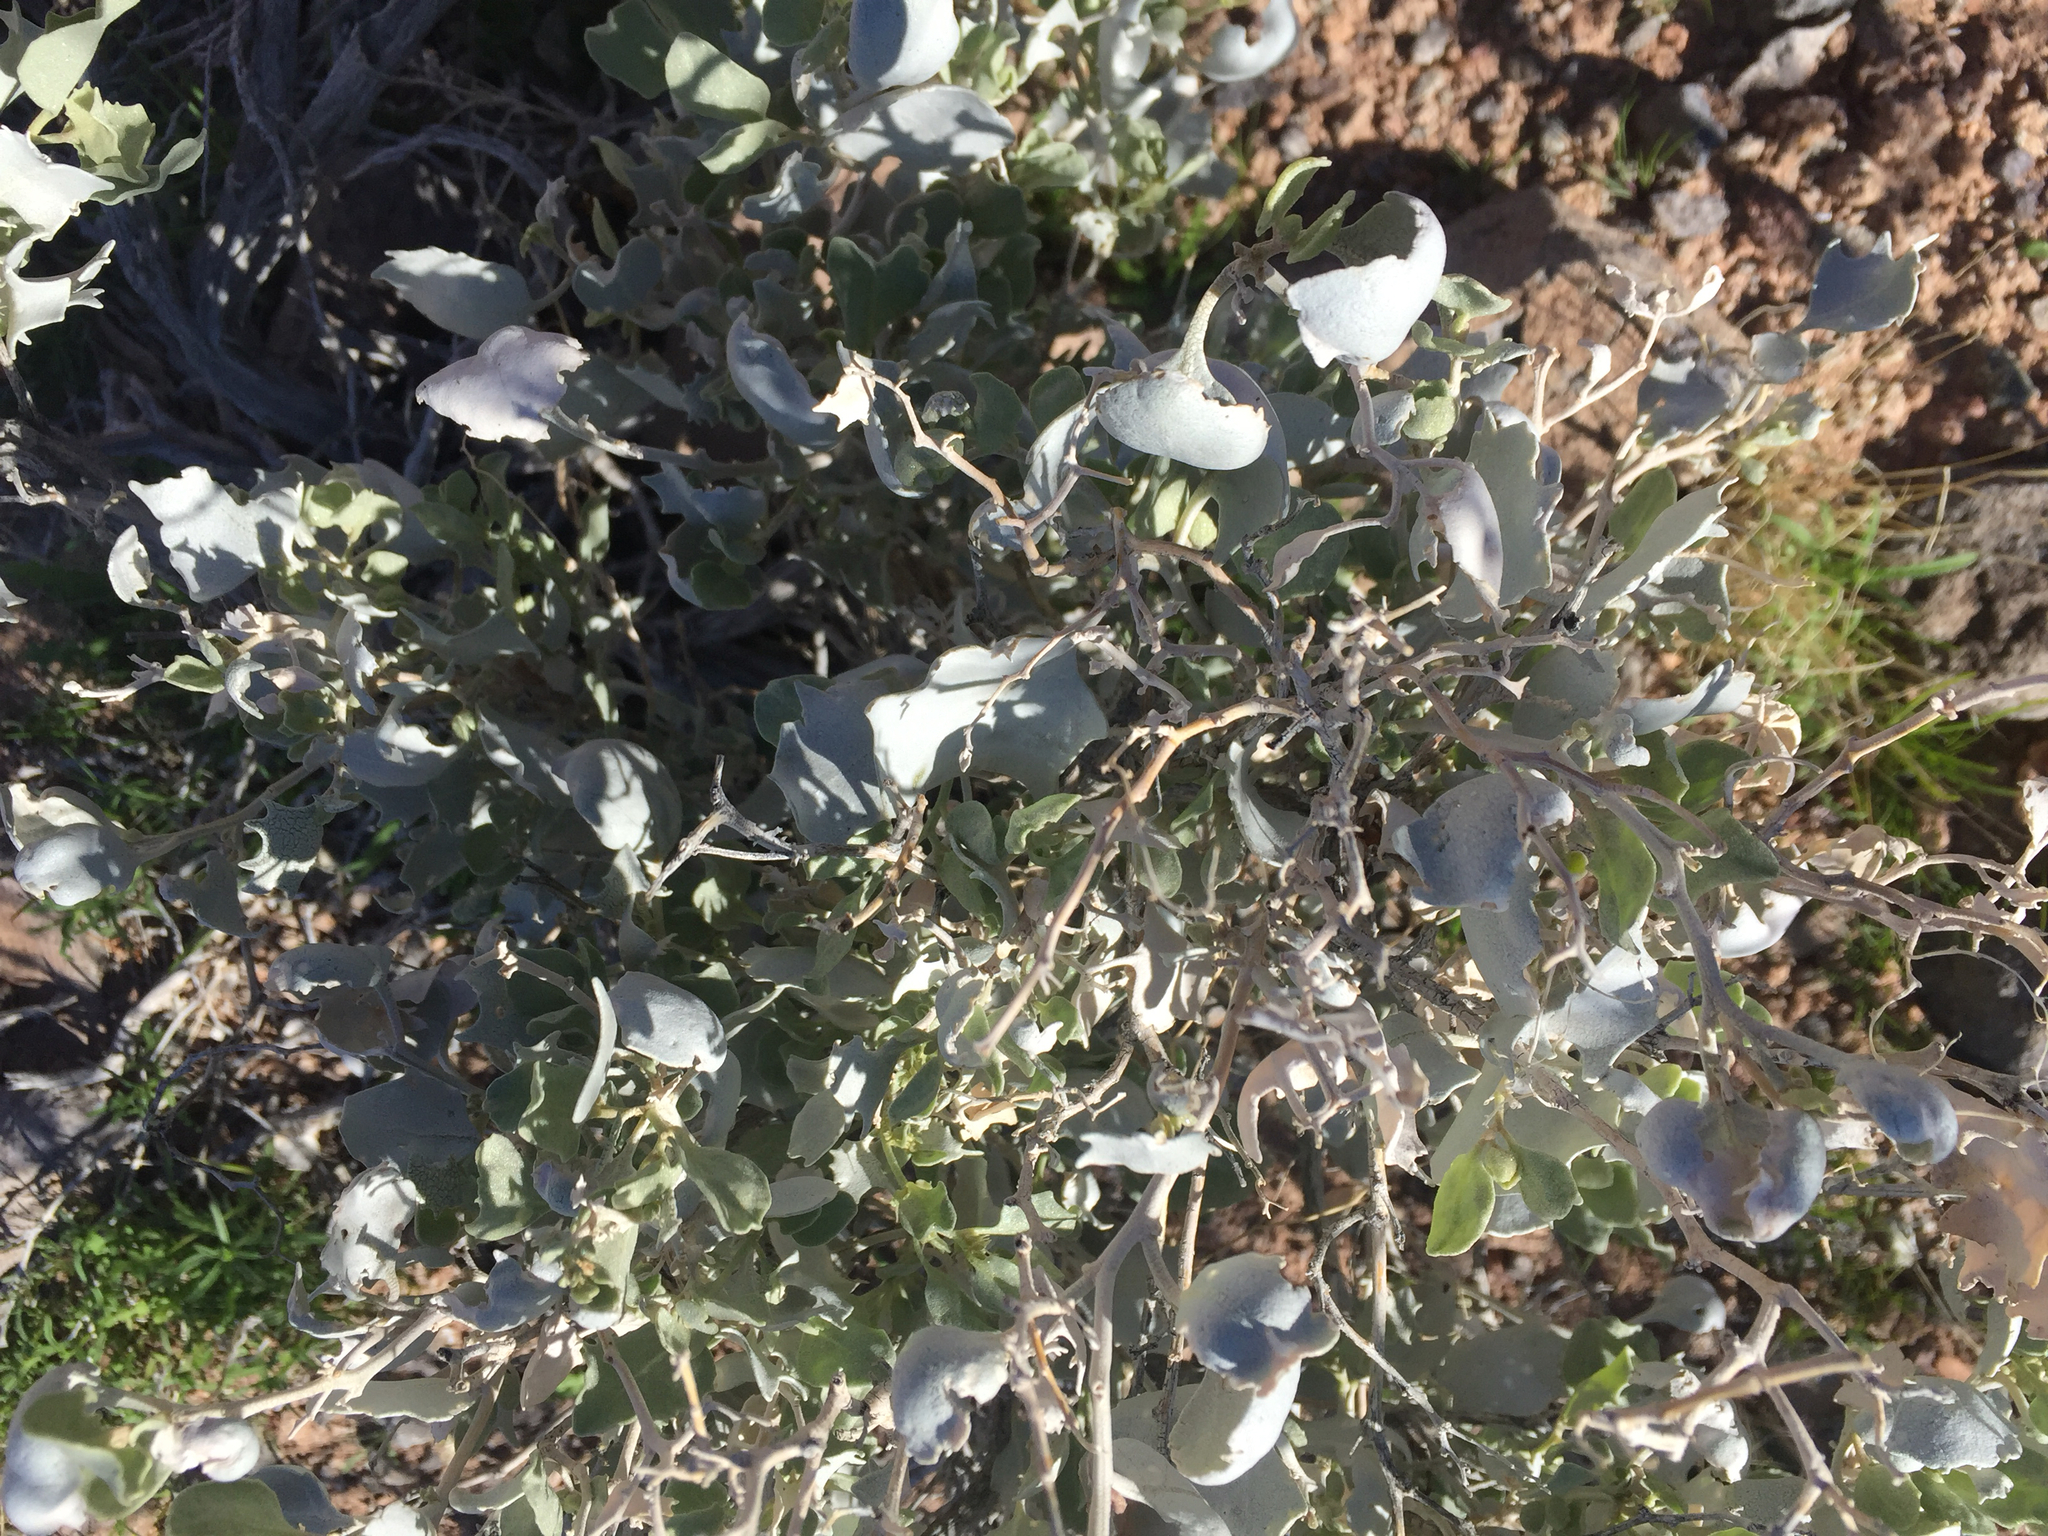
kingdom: Plantae
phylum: Tracheophyta
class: Magnoliopsida
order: Caryophyllales
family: Amaranthaceae
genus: Atriplex
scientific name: Atriplex hymenelytra
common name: Desert-holly
